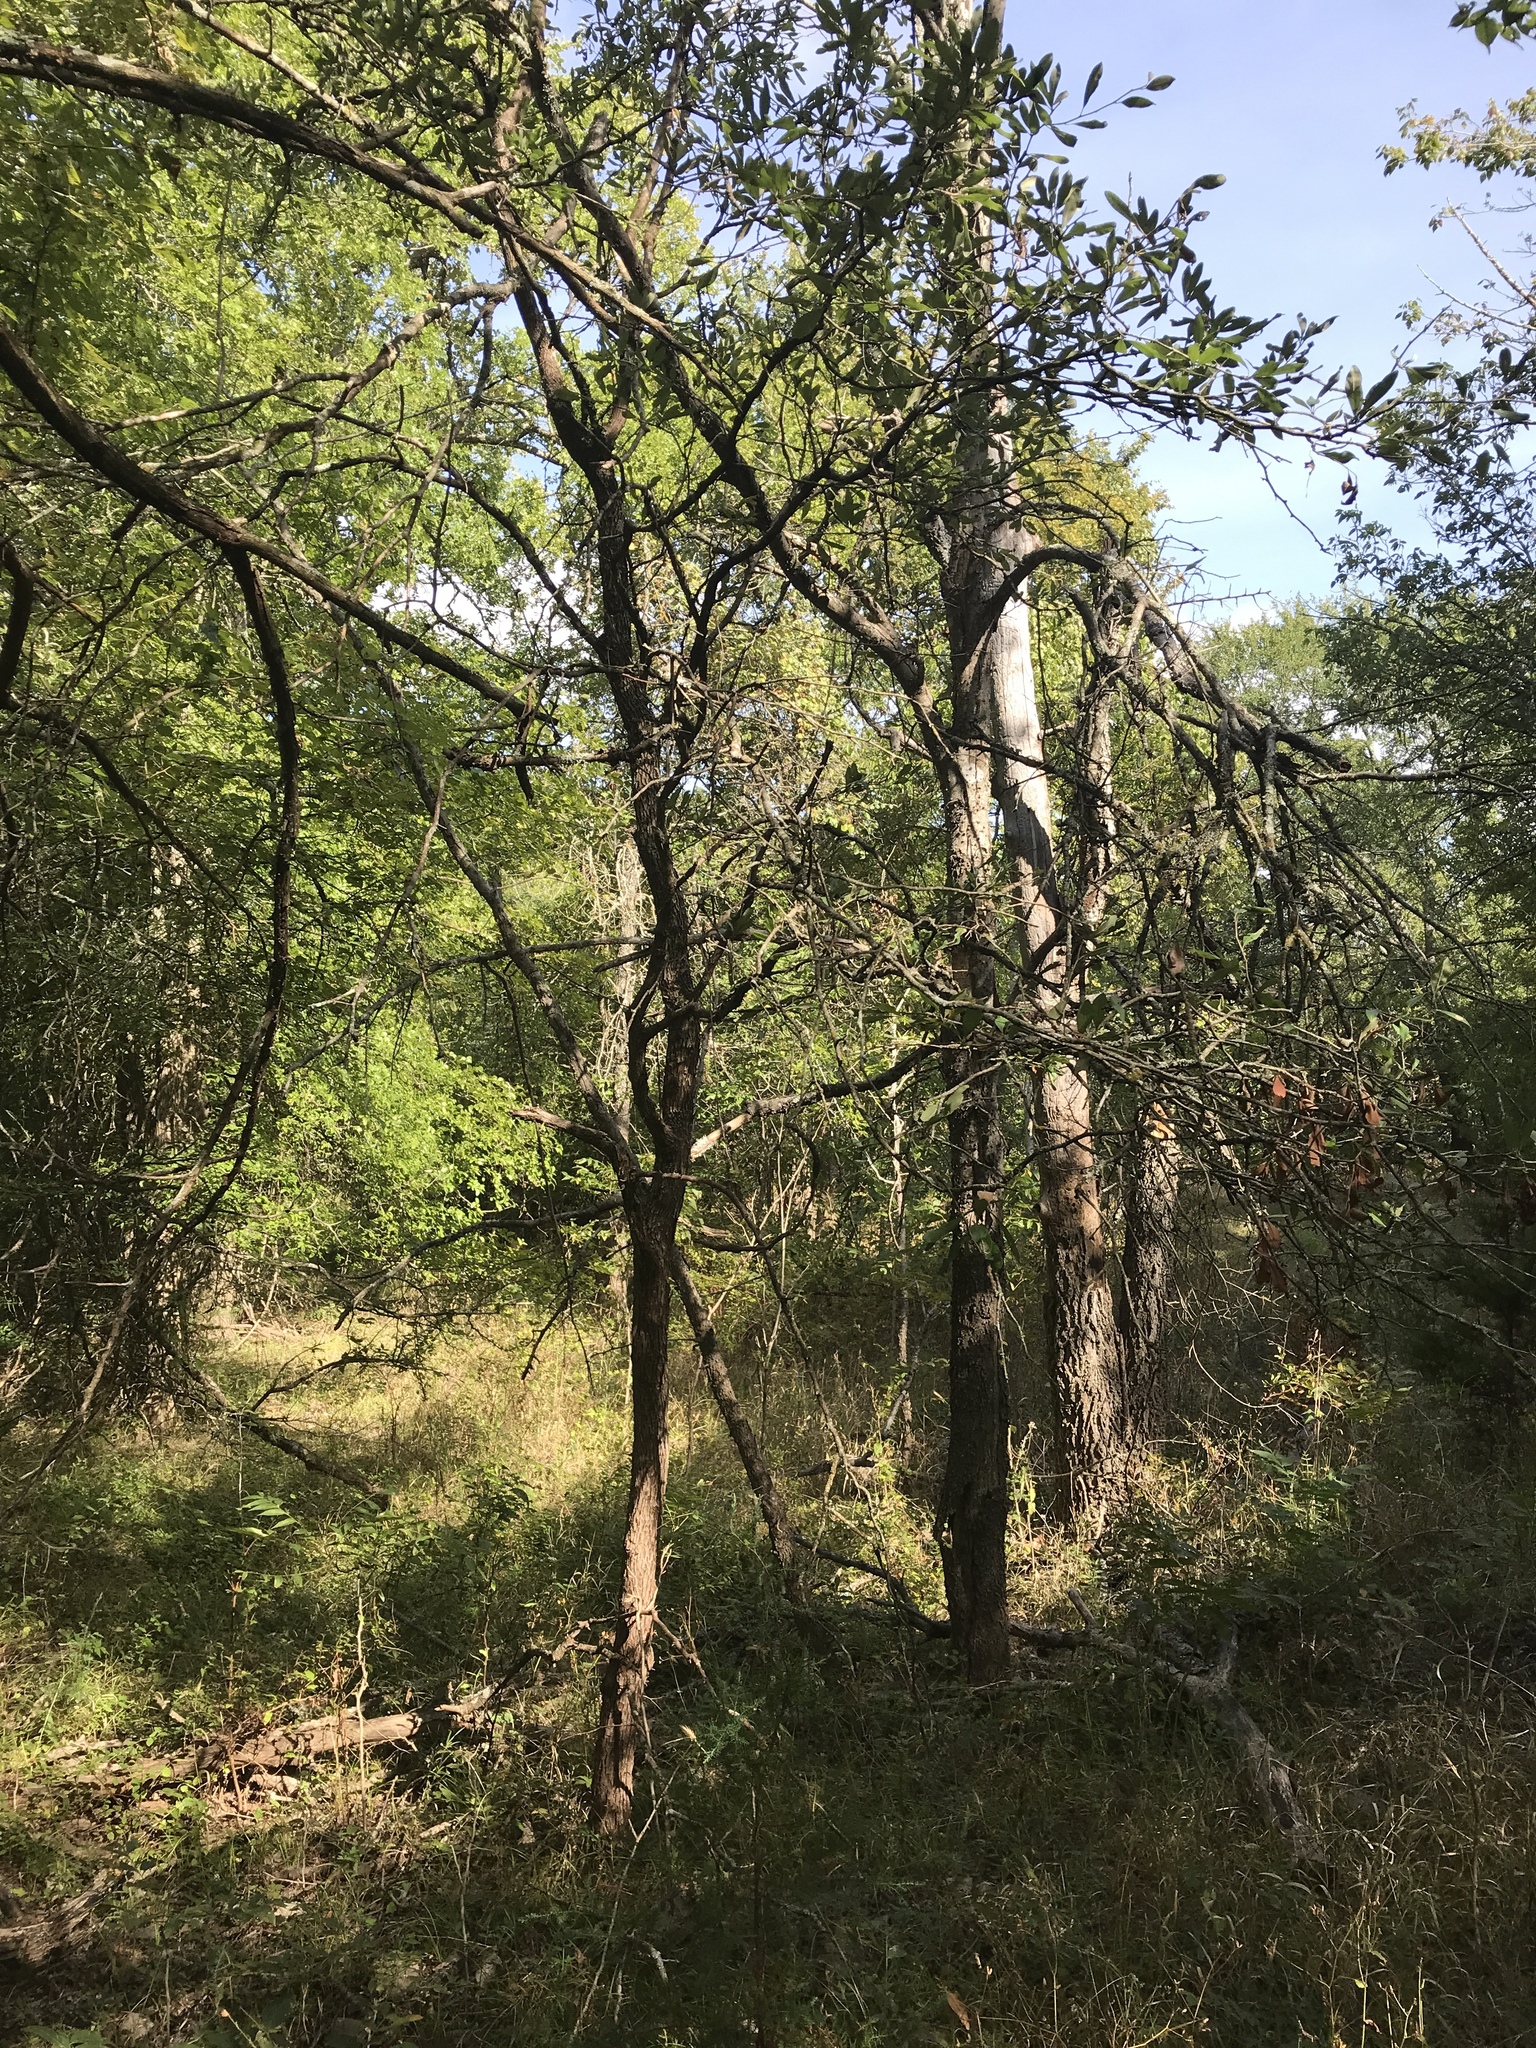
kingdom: Plantae
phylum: Tracheophyta
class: Magnoliopsida
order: Ericales
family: Sapotaceae
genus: Sideroxylon
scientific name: Sideroxylon lanuginosum
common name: Chittamwood
